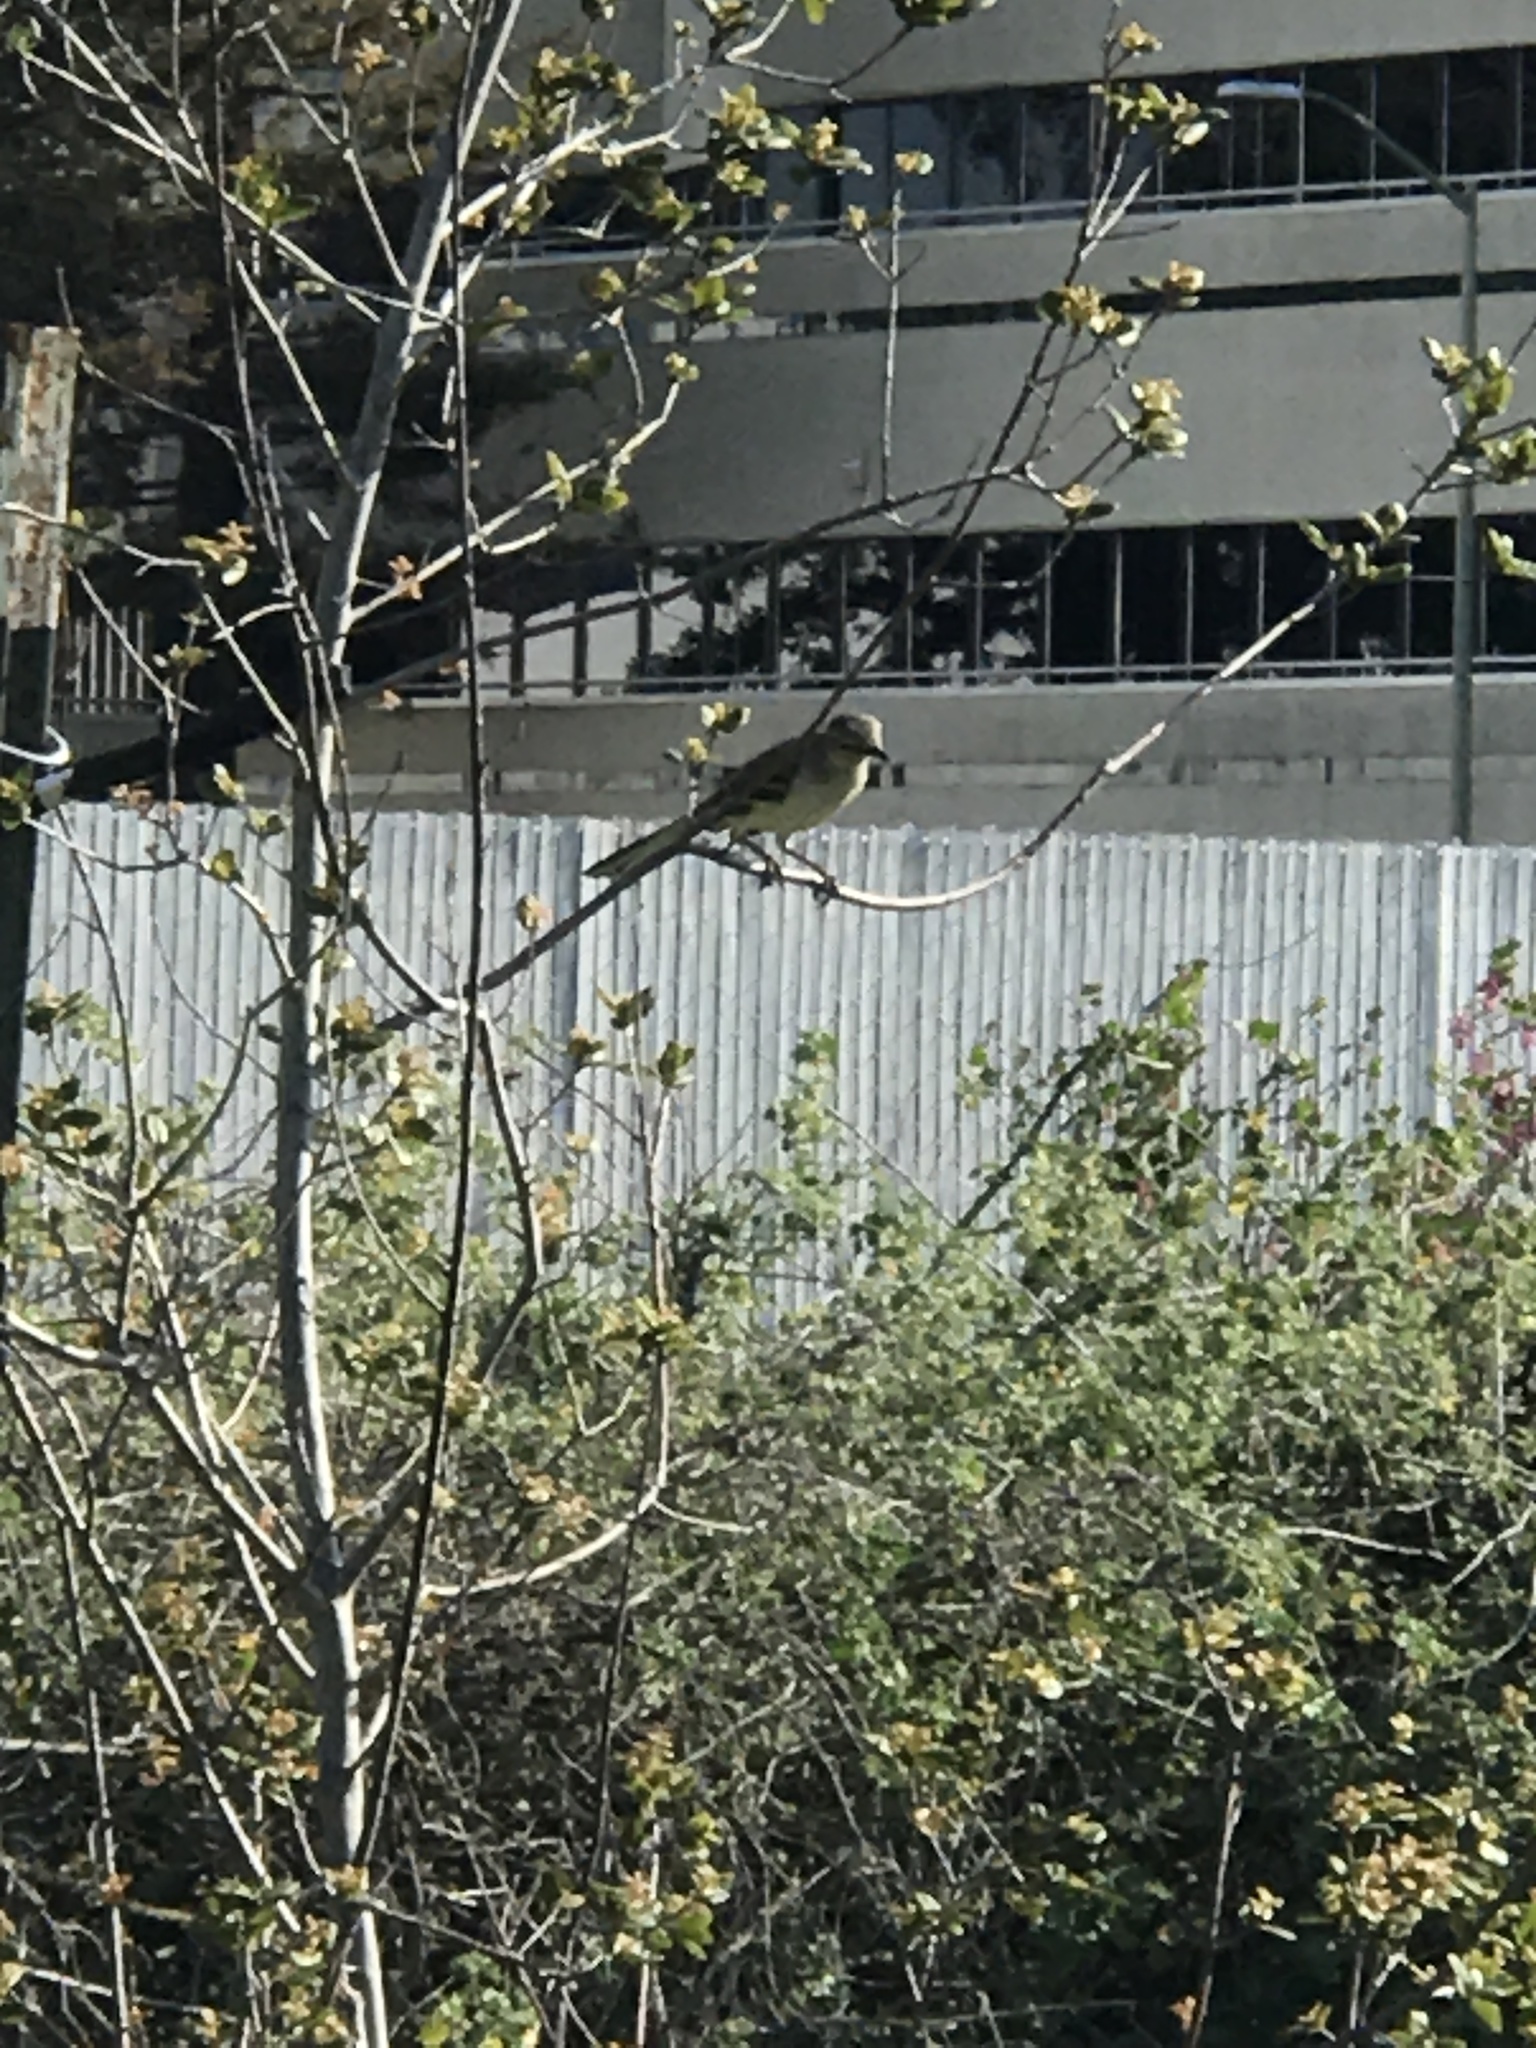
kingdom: Animalia
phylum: Chordata
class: Aves
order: Passeriformes
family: Mimidae
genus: Mimus
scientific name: Mimus polyglottos
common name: Northern mockingbird
